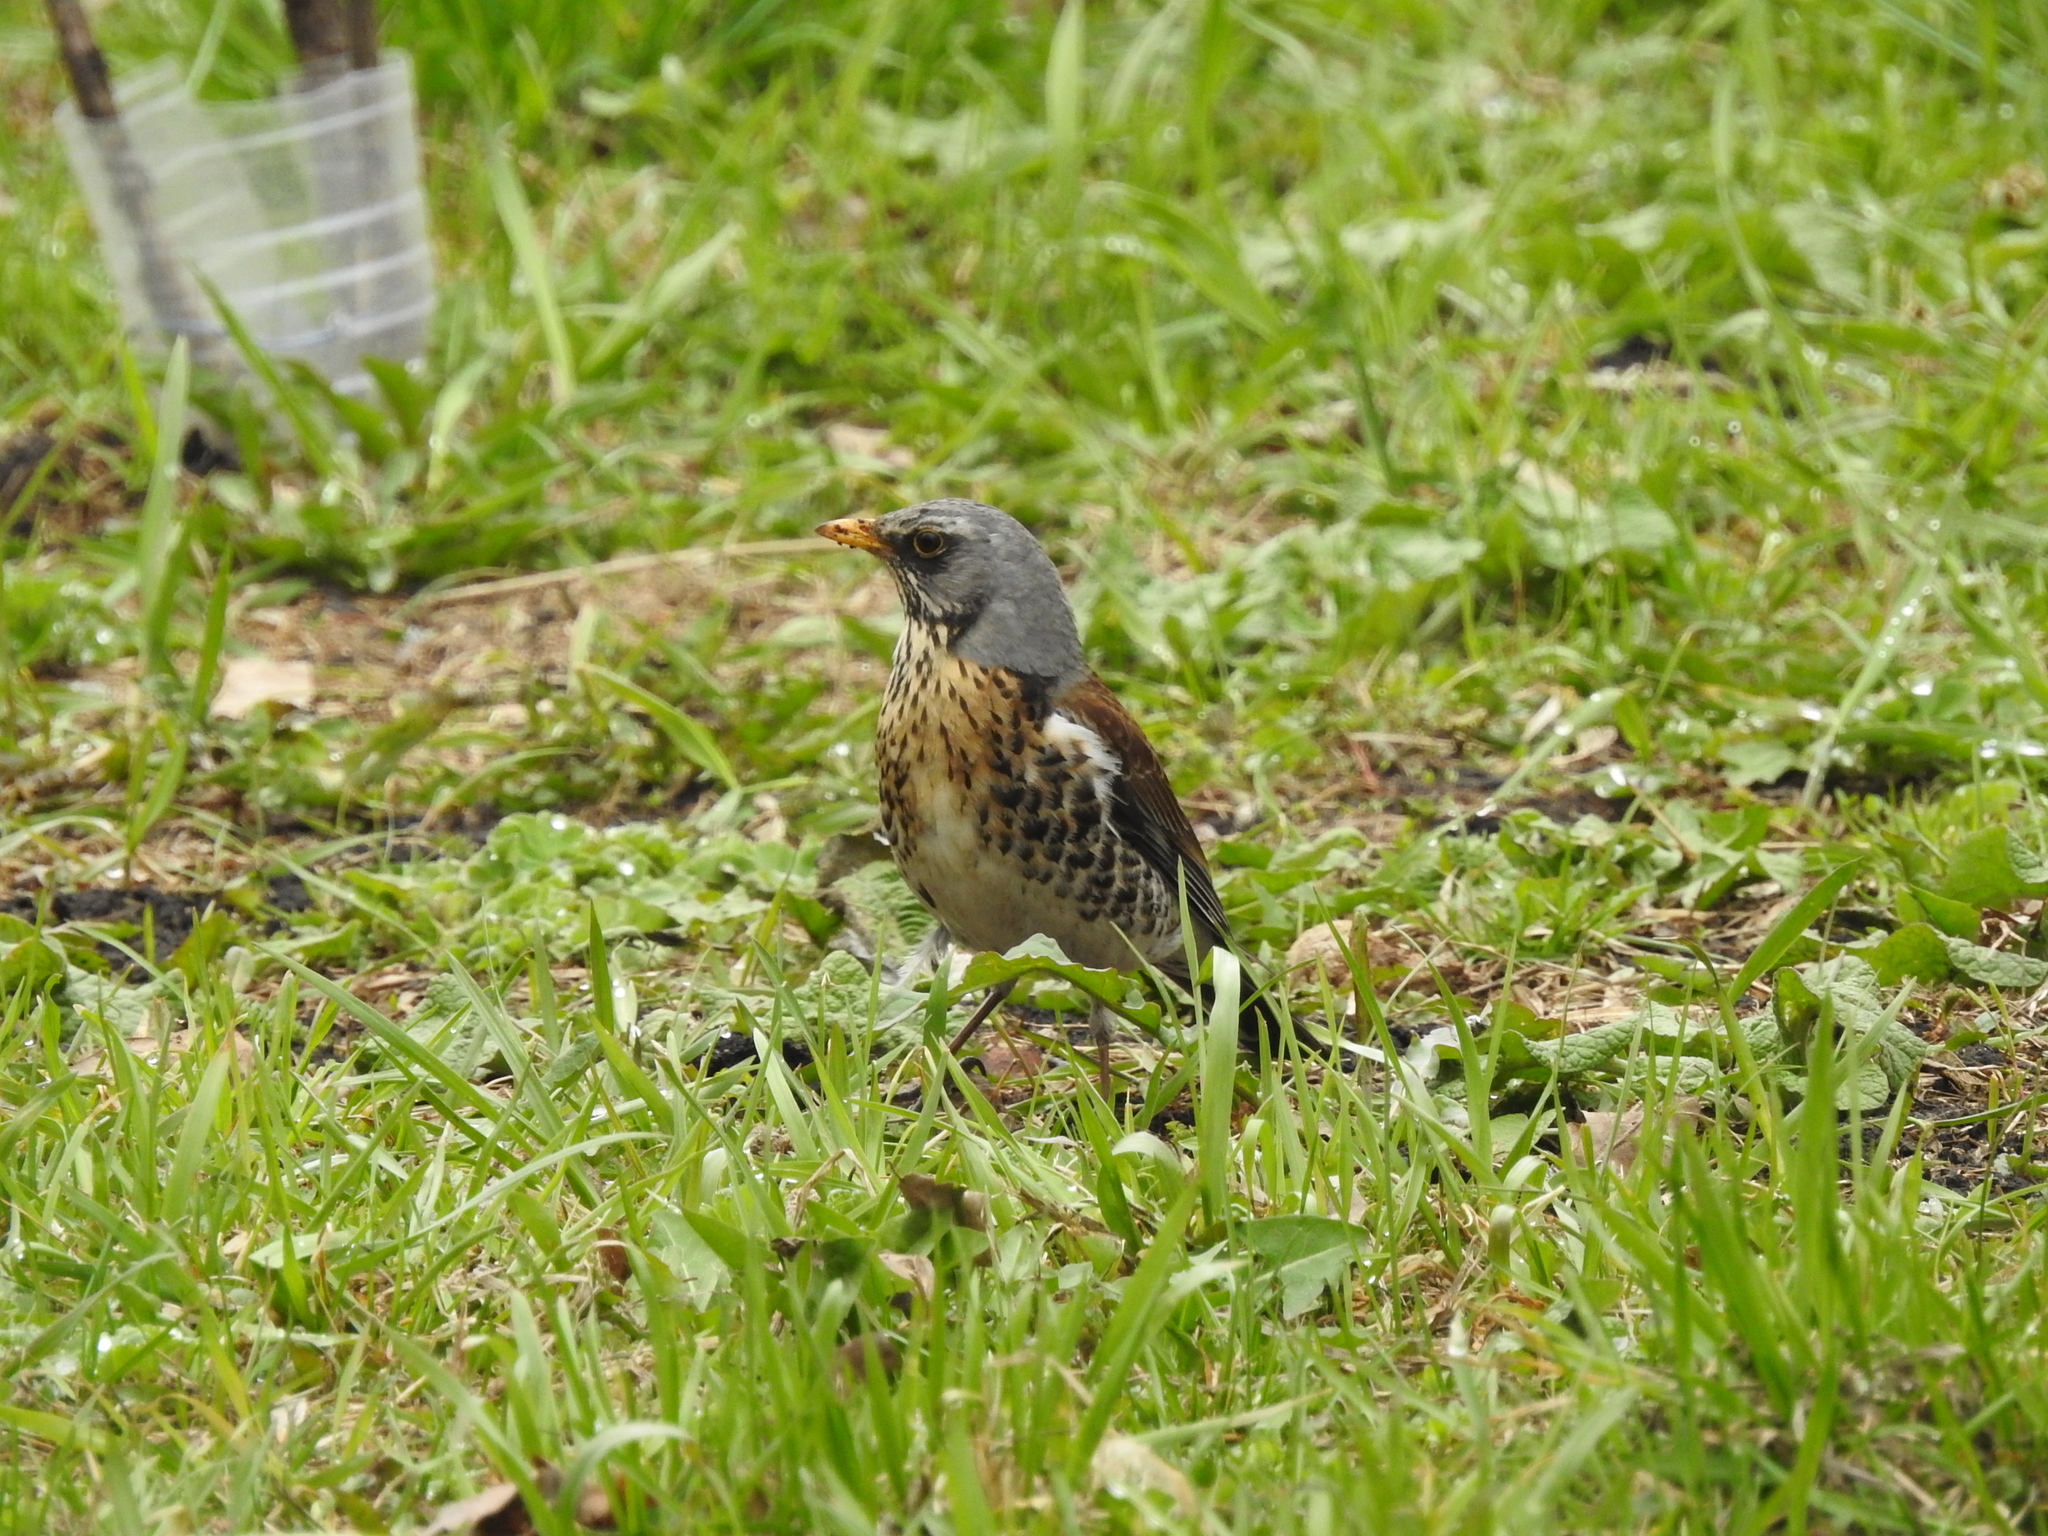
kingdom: Animalia
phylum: Chordata
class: Aves
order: Passeriformes
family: Turdidae
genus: Turdus
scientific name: Turdus pilaris
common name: Fieldfare
